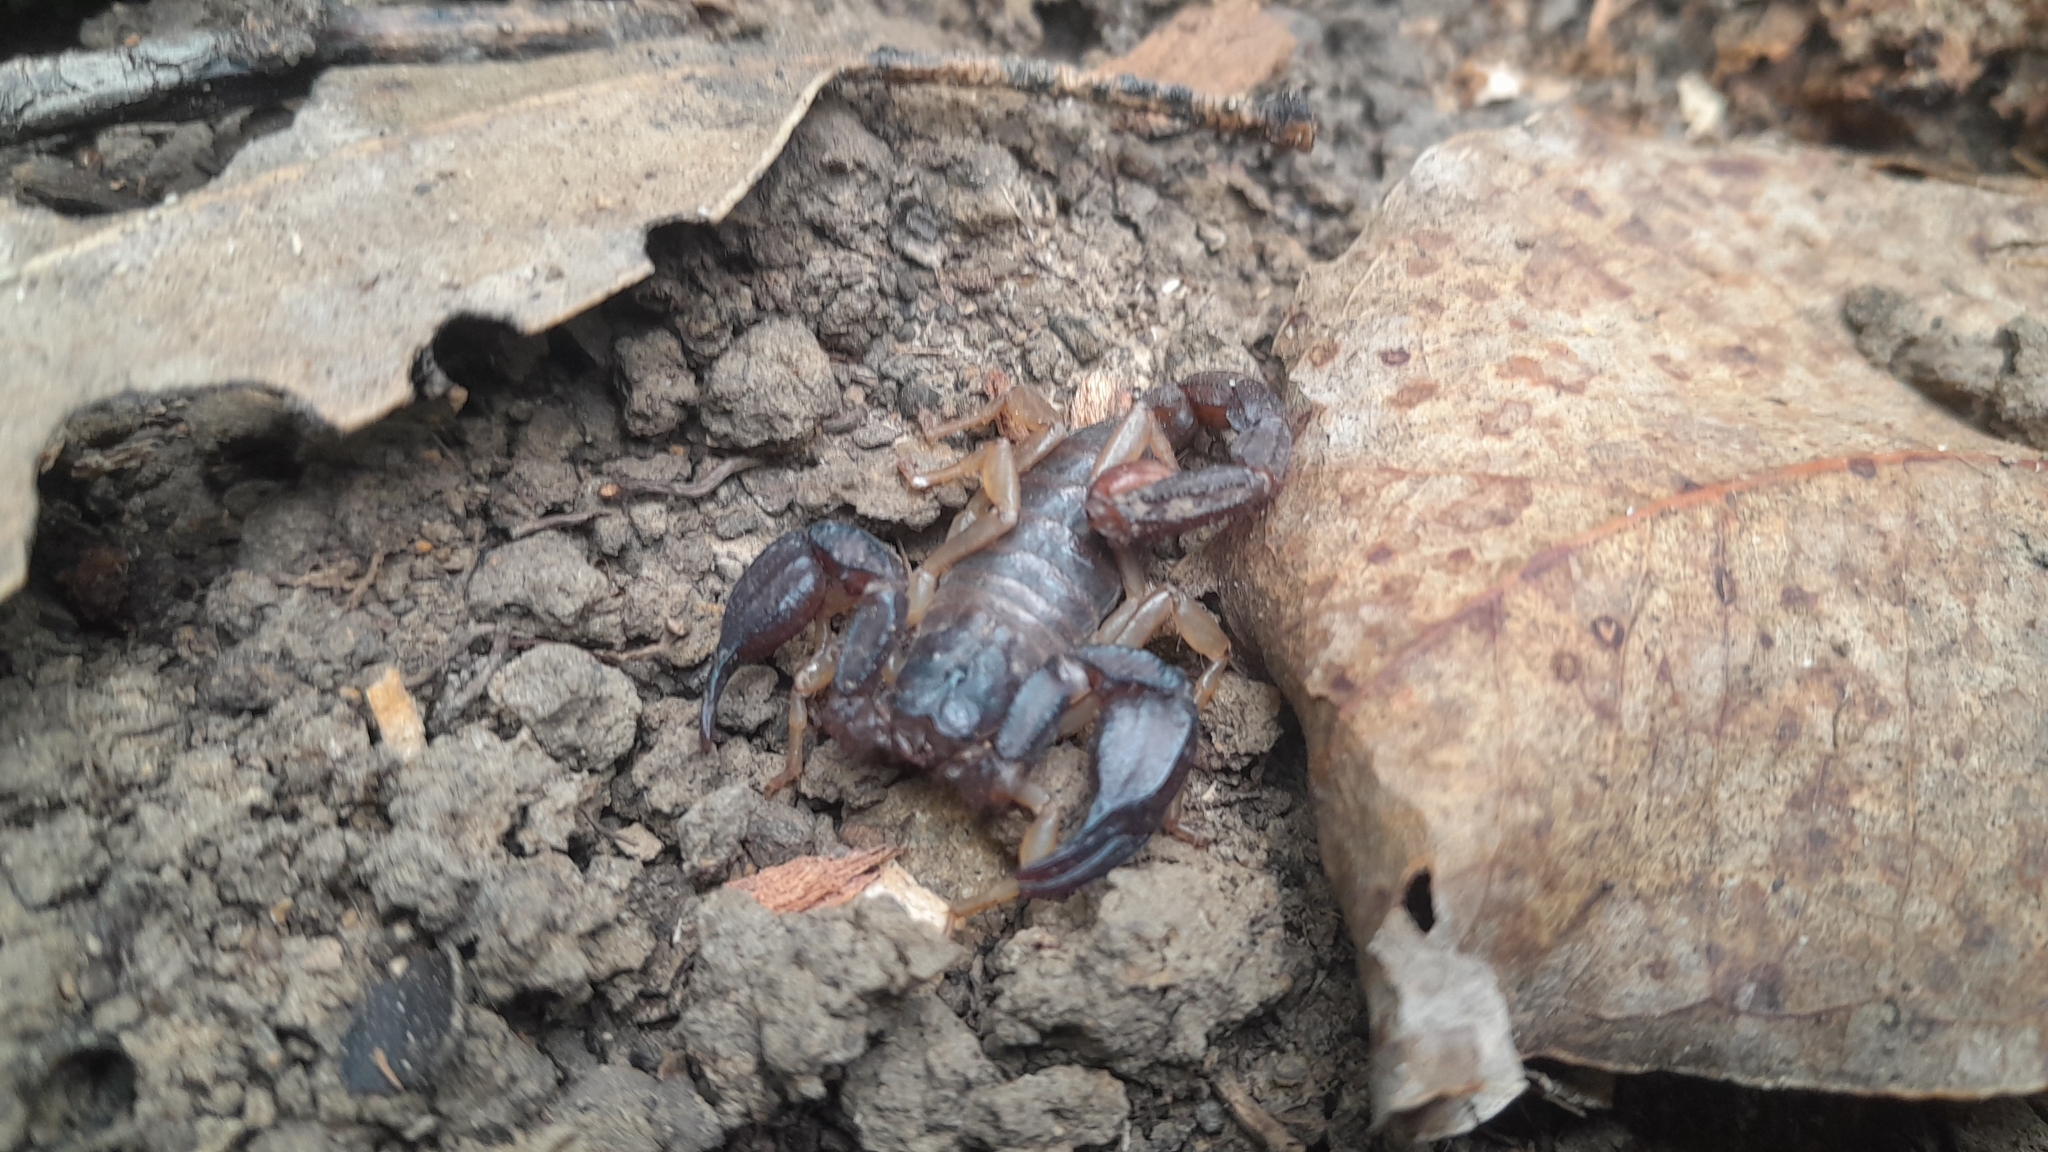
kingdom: Animalia
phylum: Arthropoda
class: Arachnida
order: Scorpiones
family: Chactidae
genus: Uroctonus
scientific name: Uroctonus mordax
